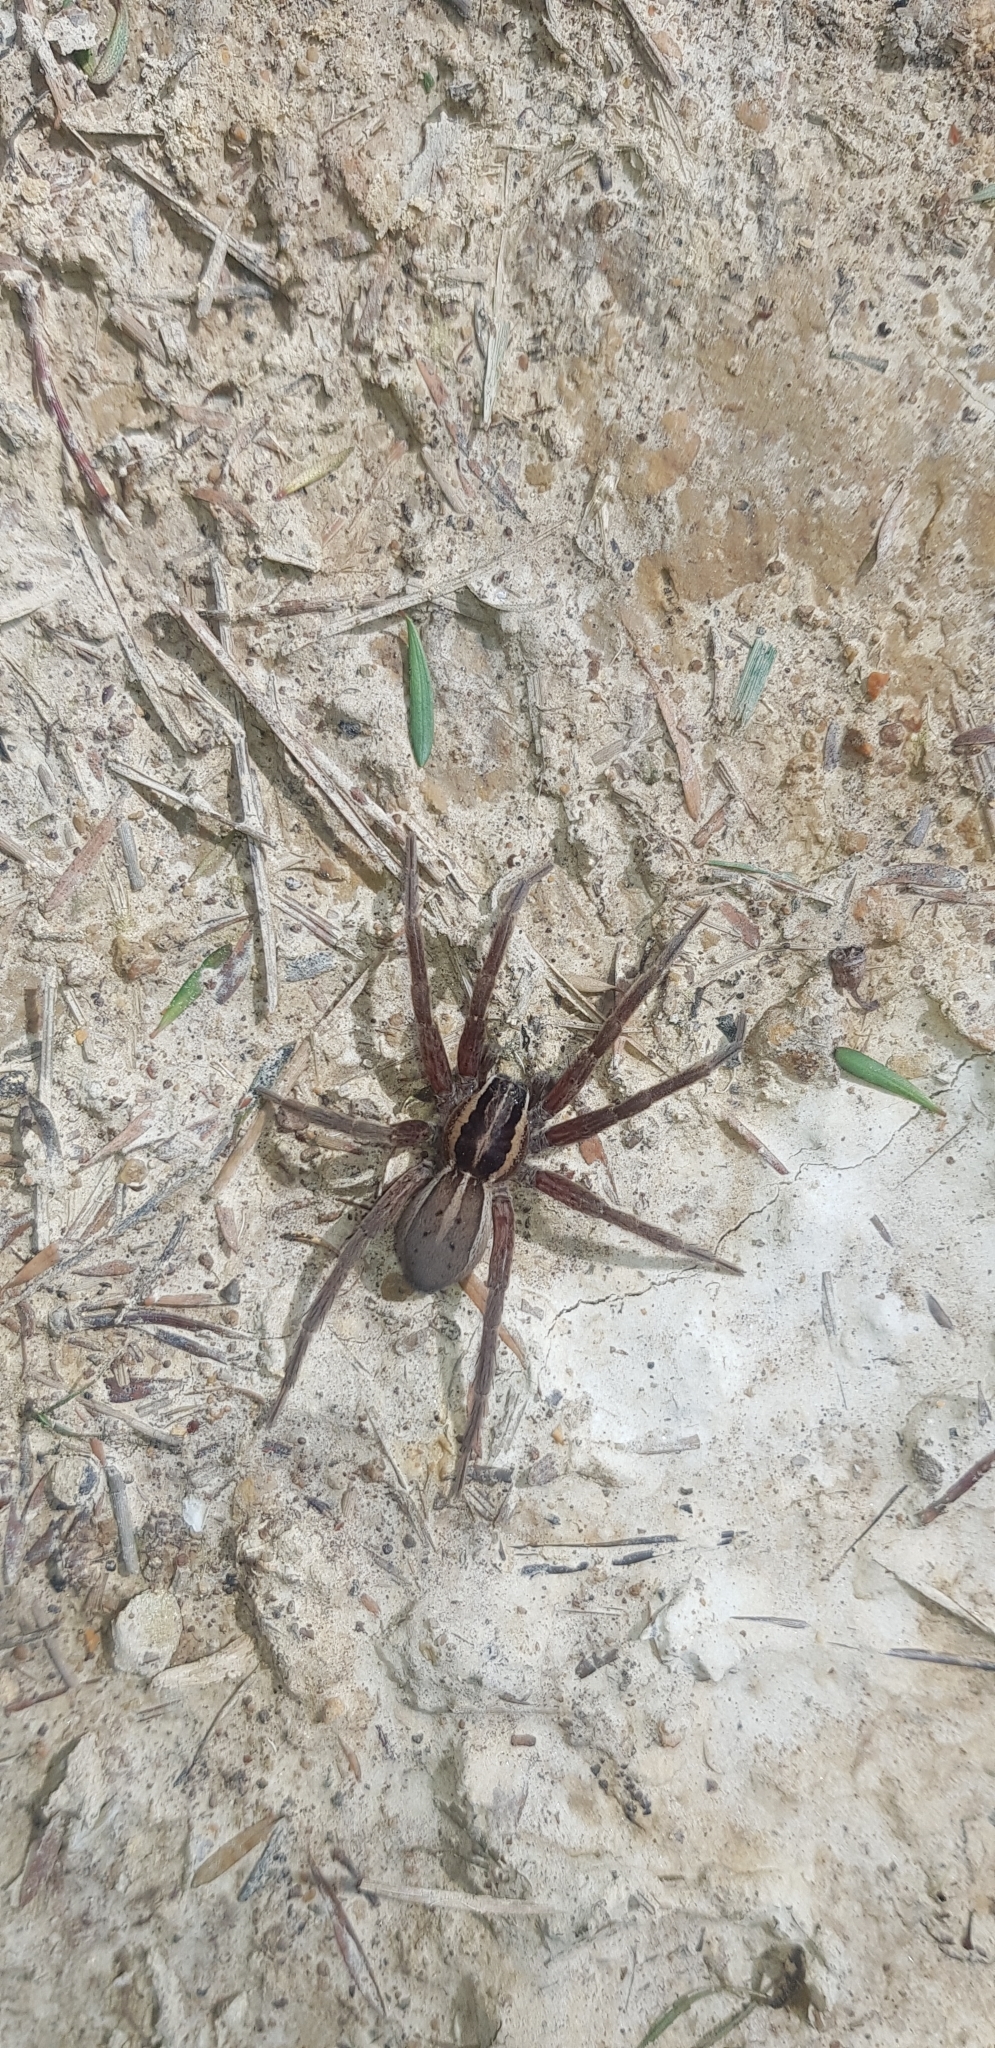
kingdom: Animalia
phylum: Arthropoda
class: Arachnida
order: Araneae
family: Pisauridae
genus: Dolomedes
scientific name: Dolomedes minor
